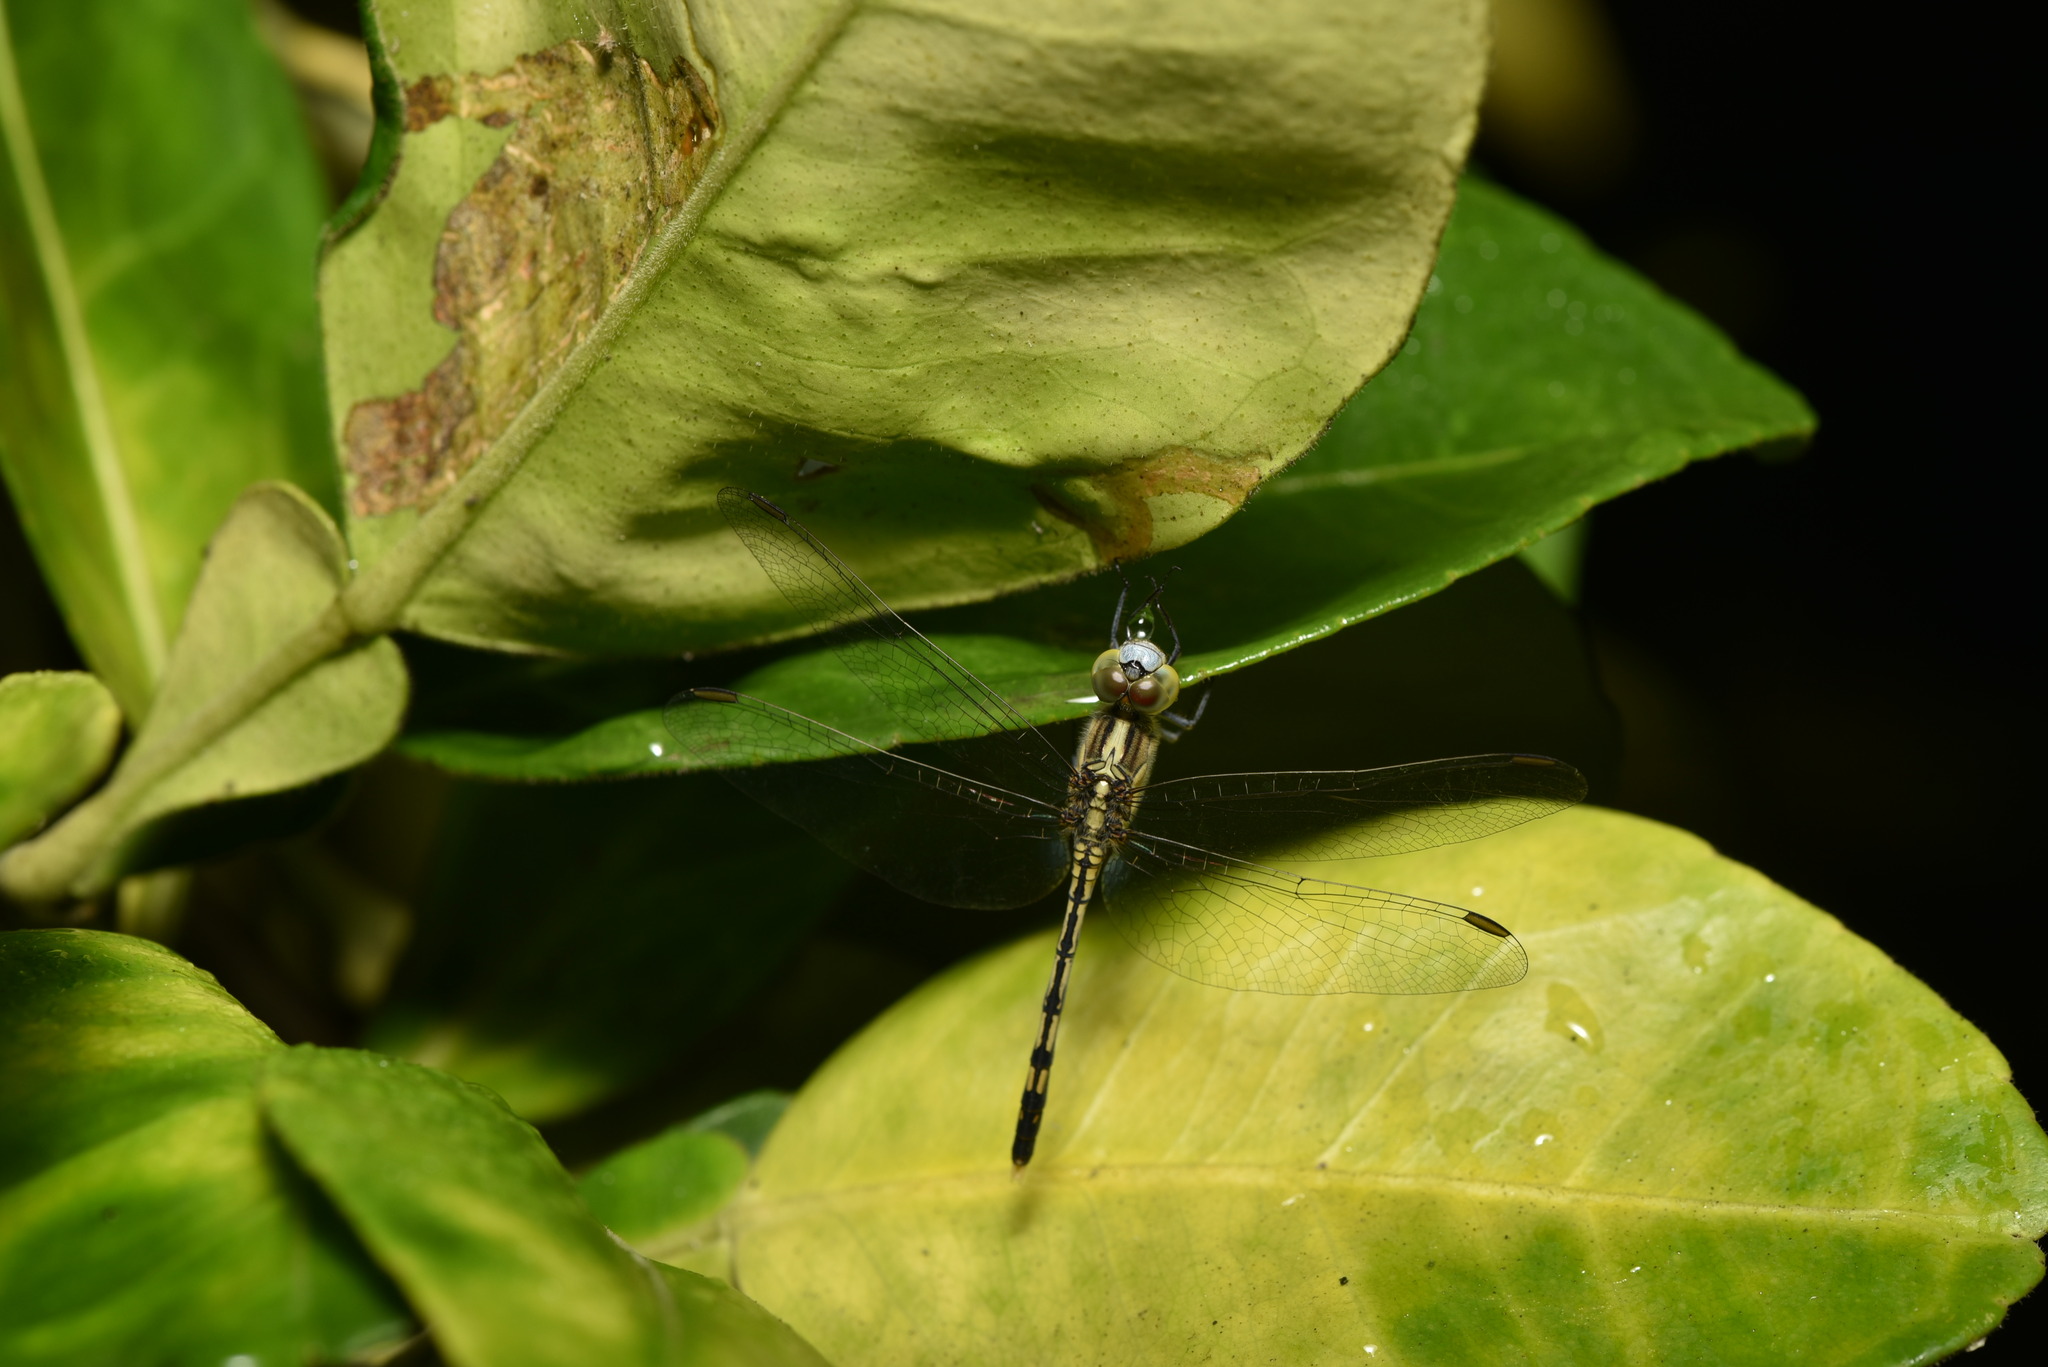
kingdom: Animalia
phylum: Arthropoda
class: Insecta
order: Odonata
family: Libellulidae
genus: Diplacodes
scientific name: Diplacodes trivialis
